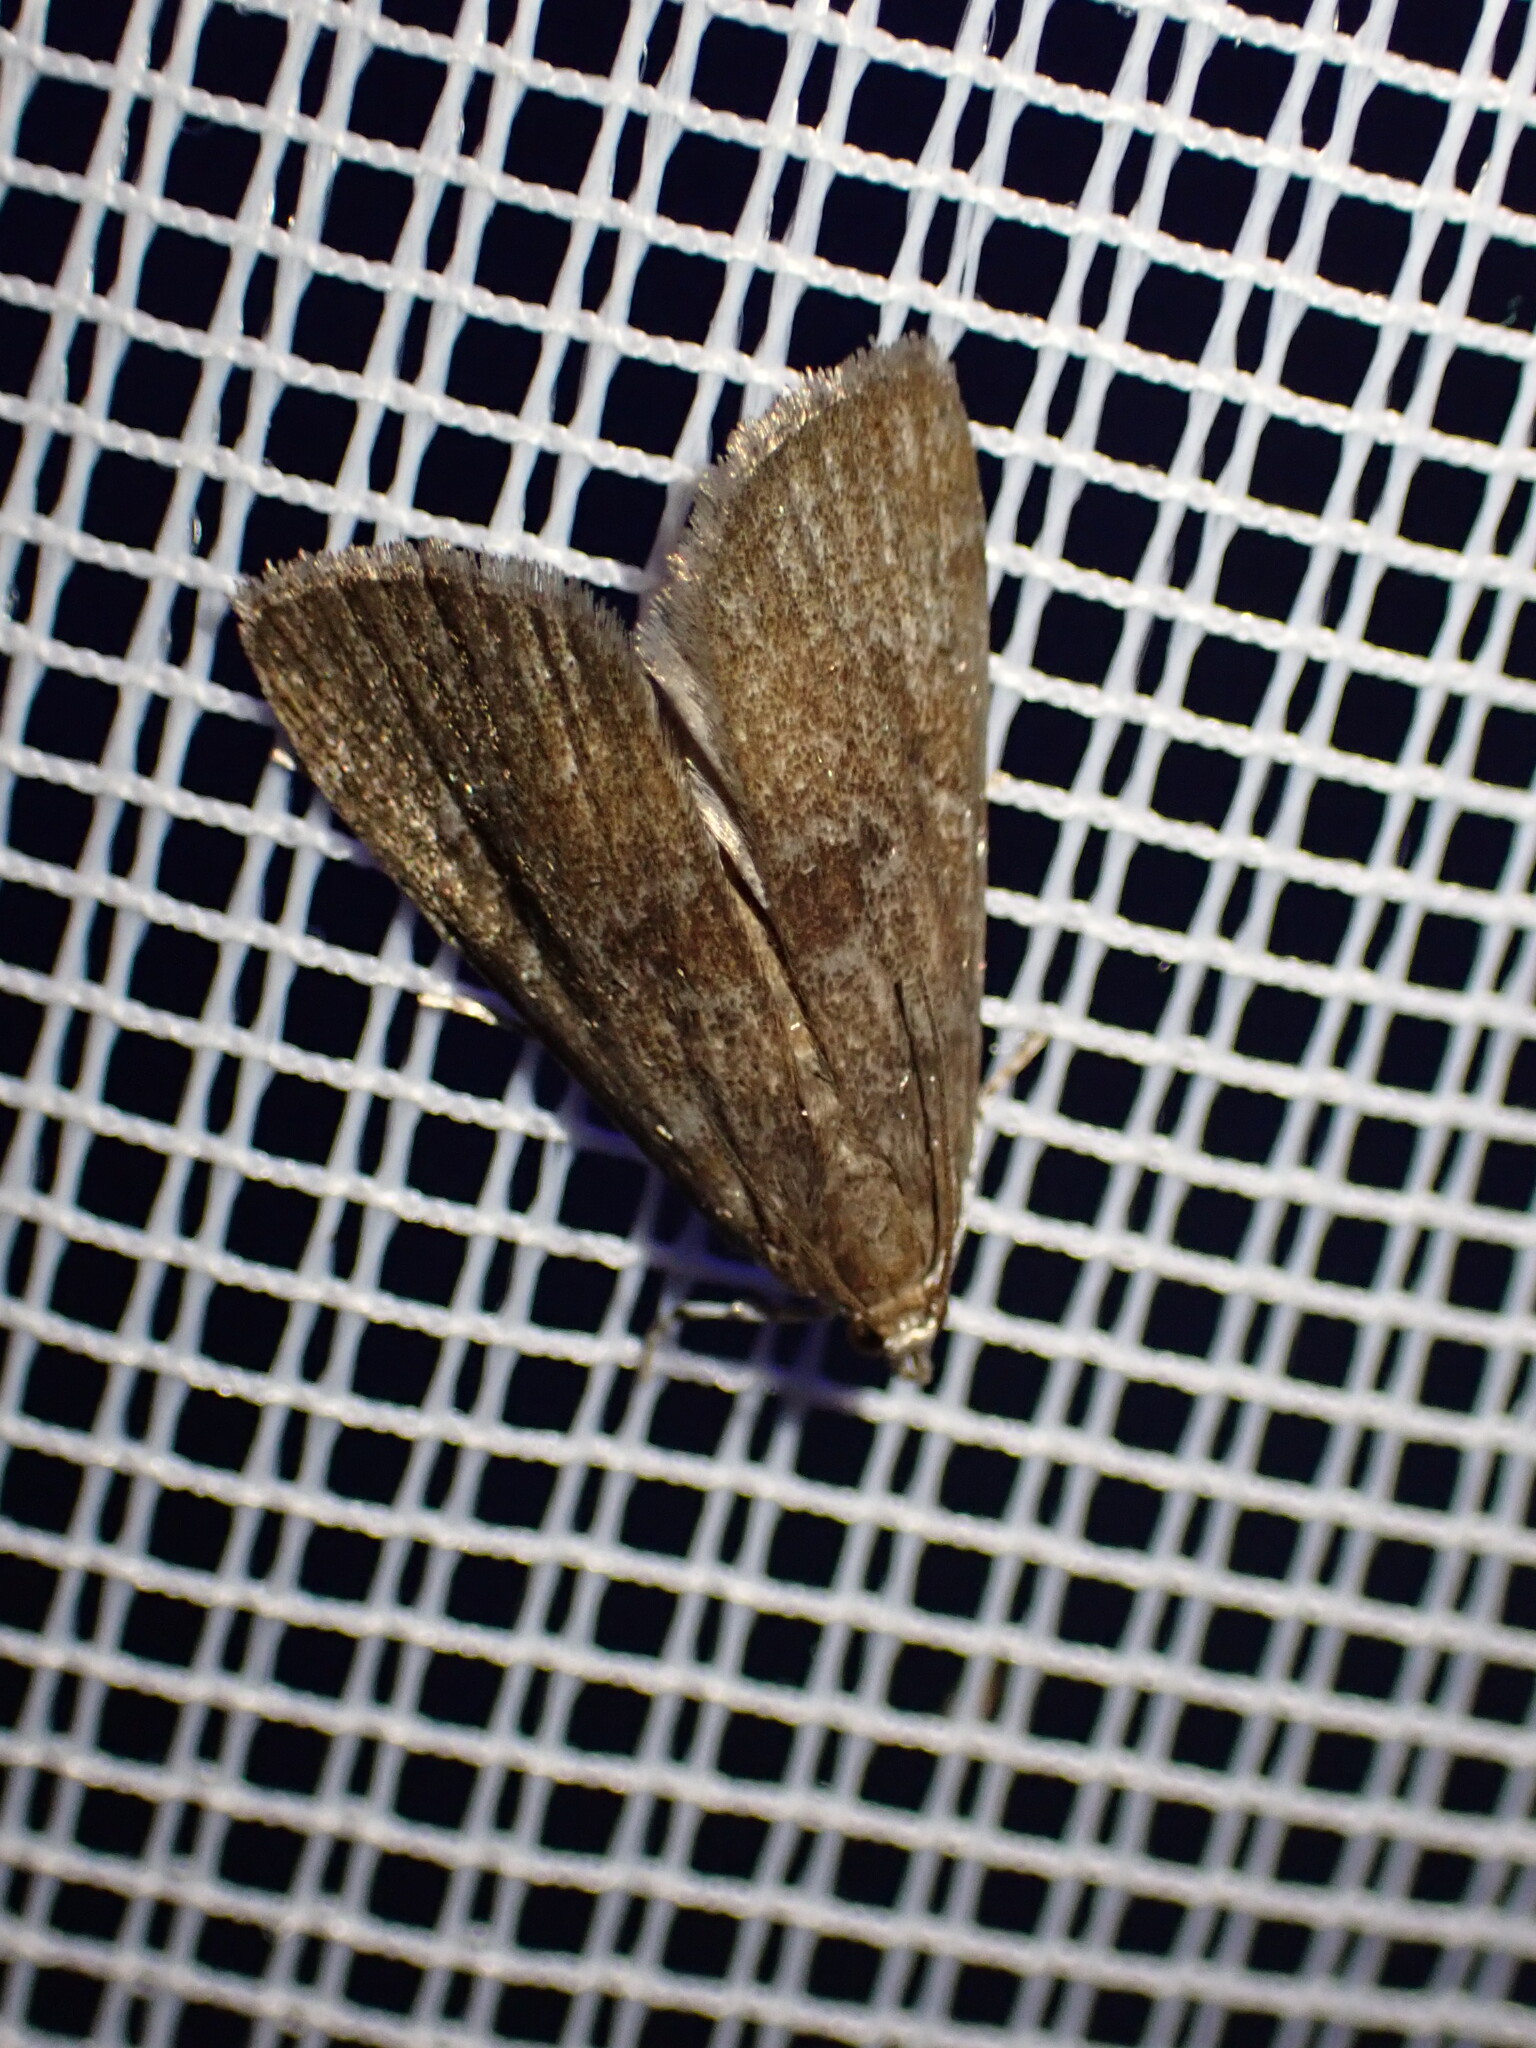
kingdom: Animalia
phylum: Arthropoda
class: Insecta
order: Lepidoptera
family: Crambidae
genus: Elophila
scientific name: Elophila gyralis
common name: Waterlily borer moth
